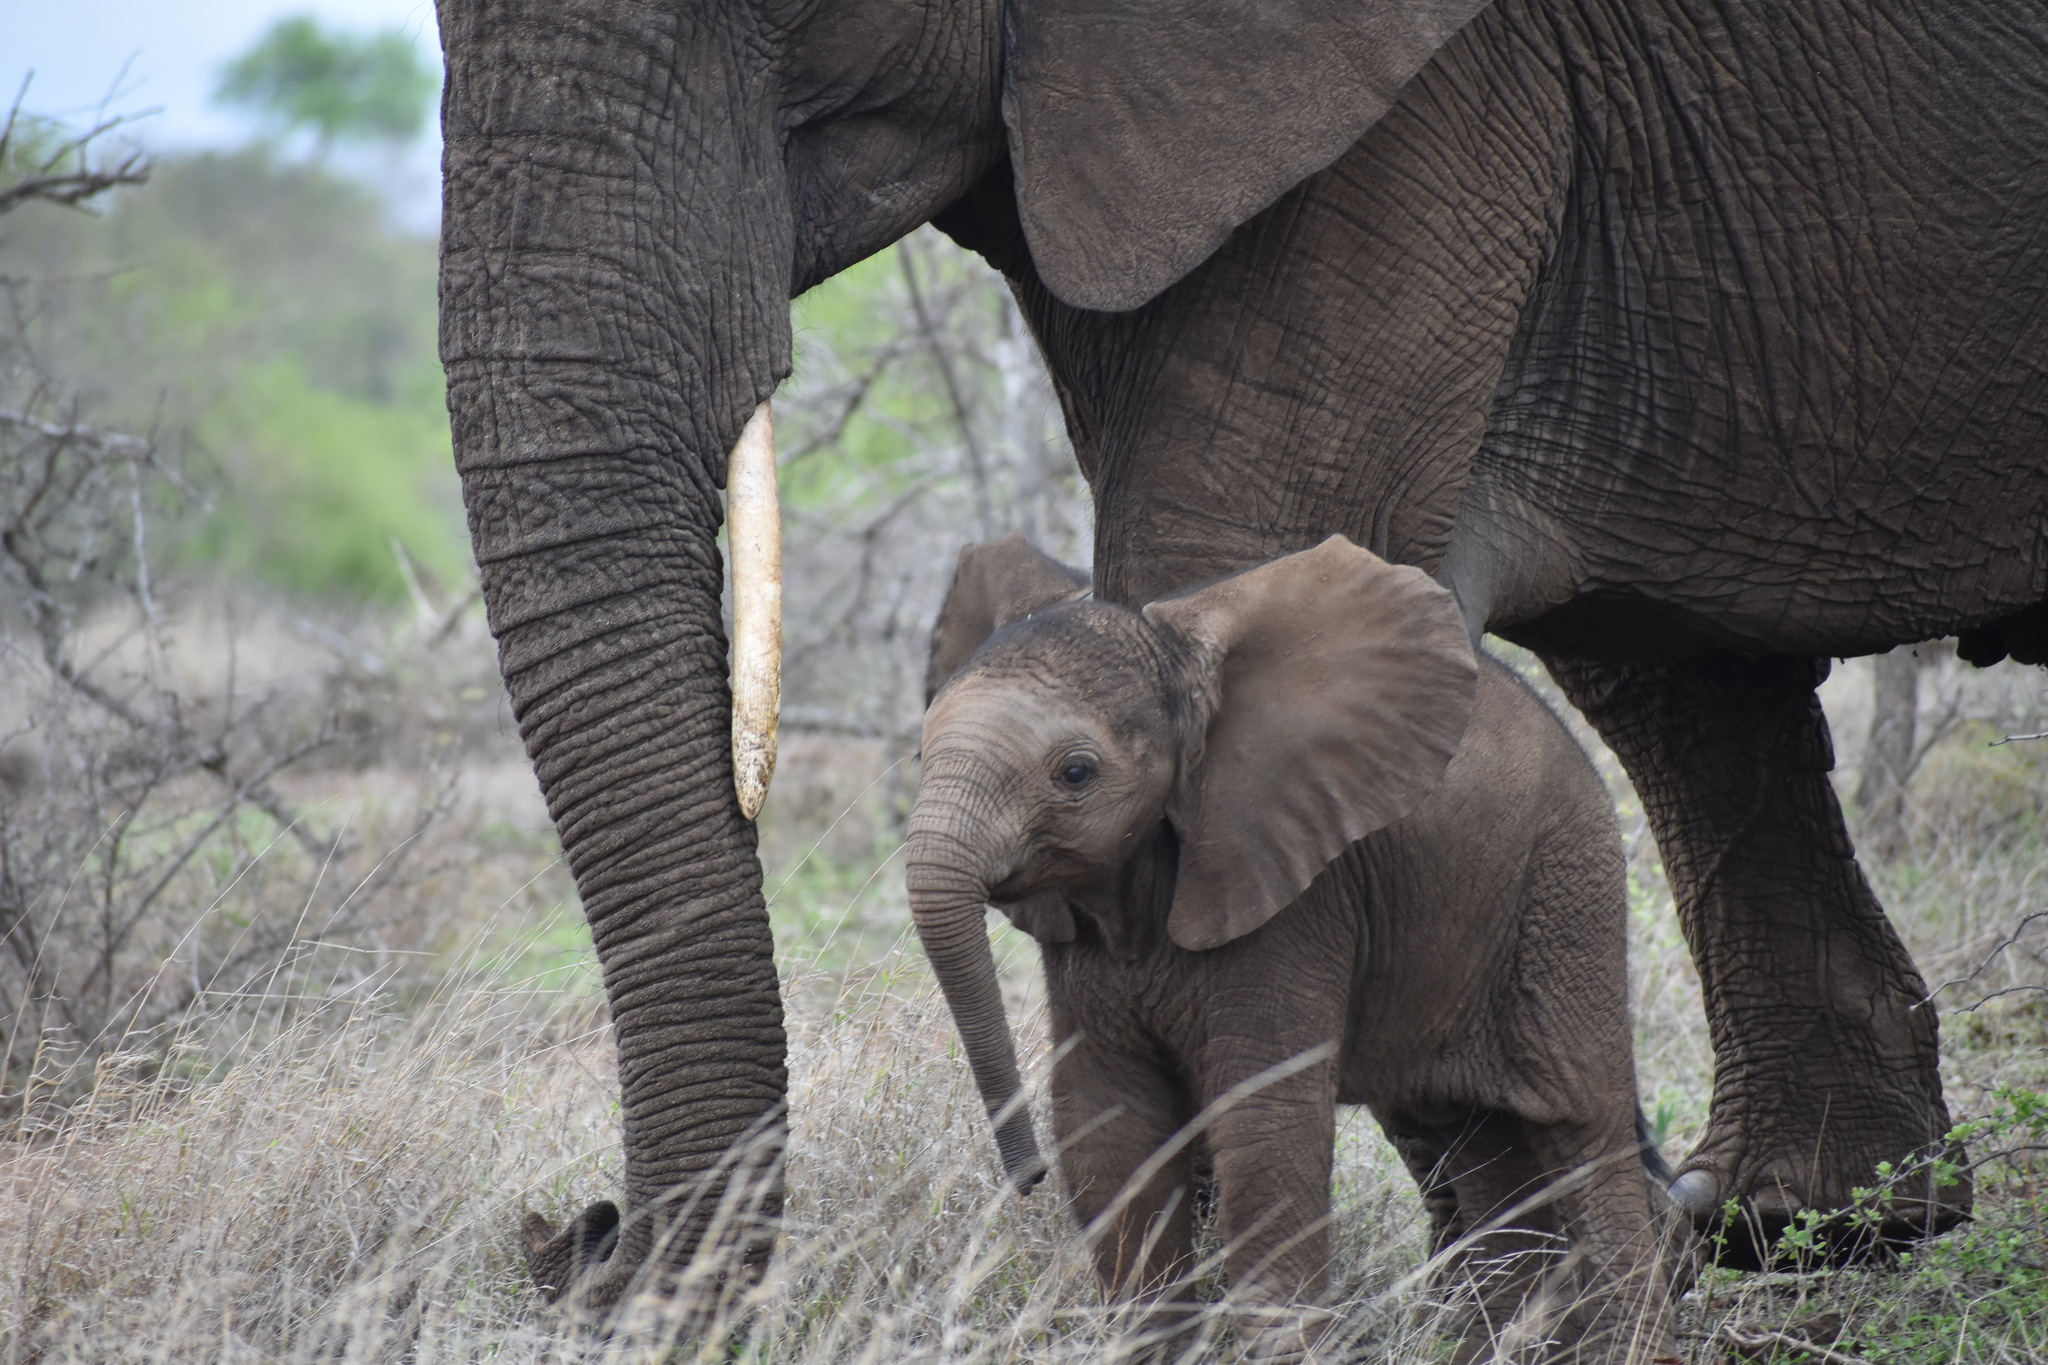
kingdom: Animalia
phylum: Chordata
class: Mammalia
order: Proboscidea
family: Elephantidae
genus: Loxodonta
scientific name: Loxodonta africana
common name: African elephant
